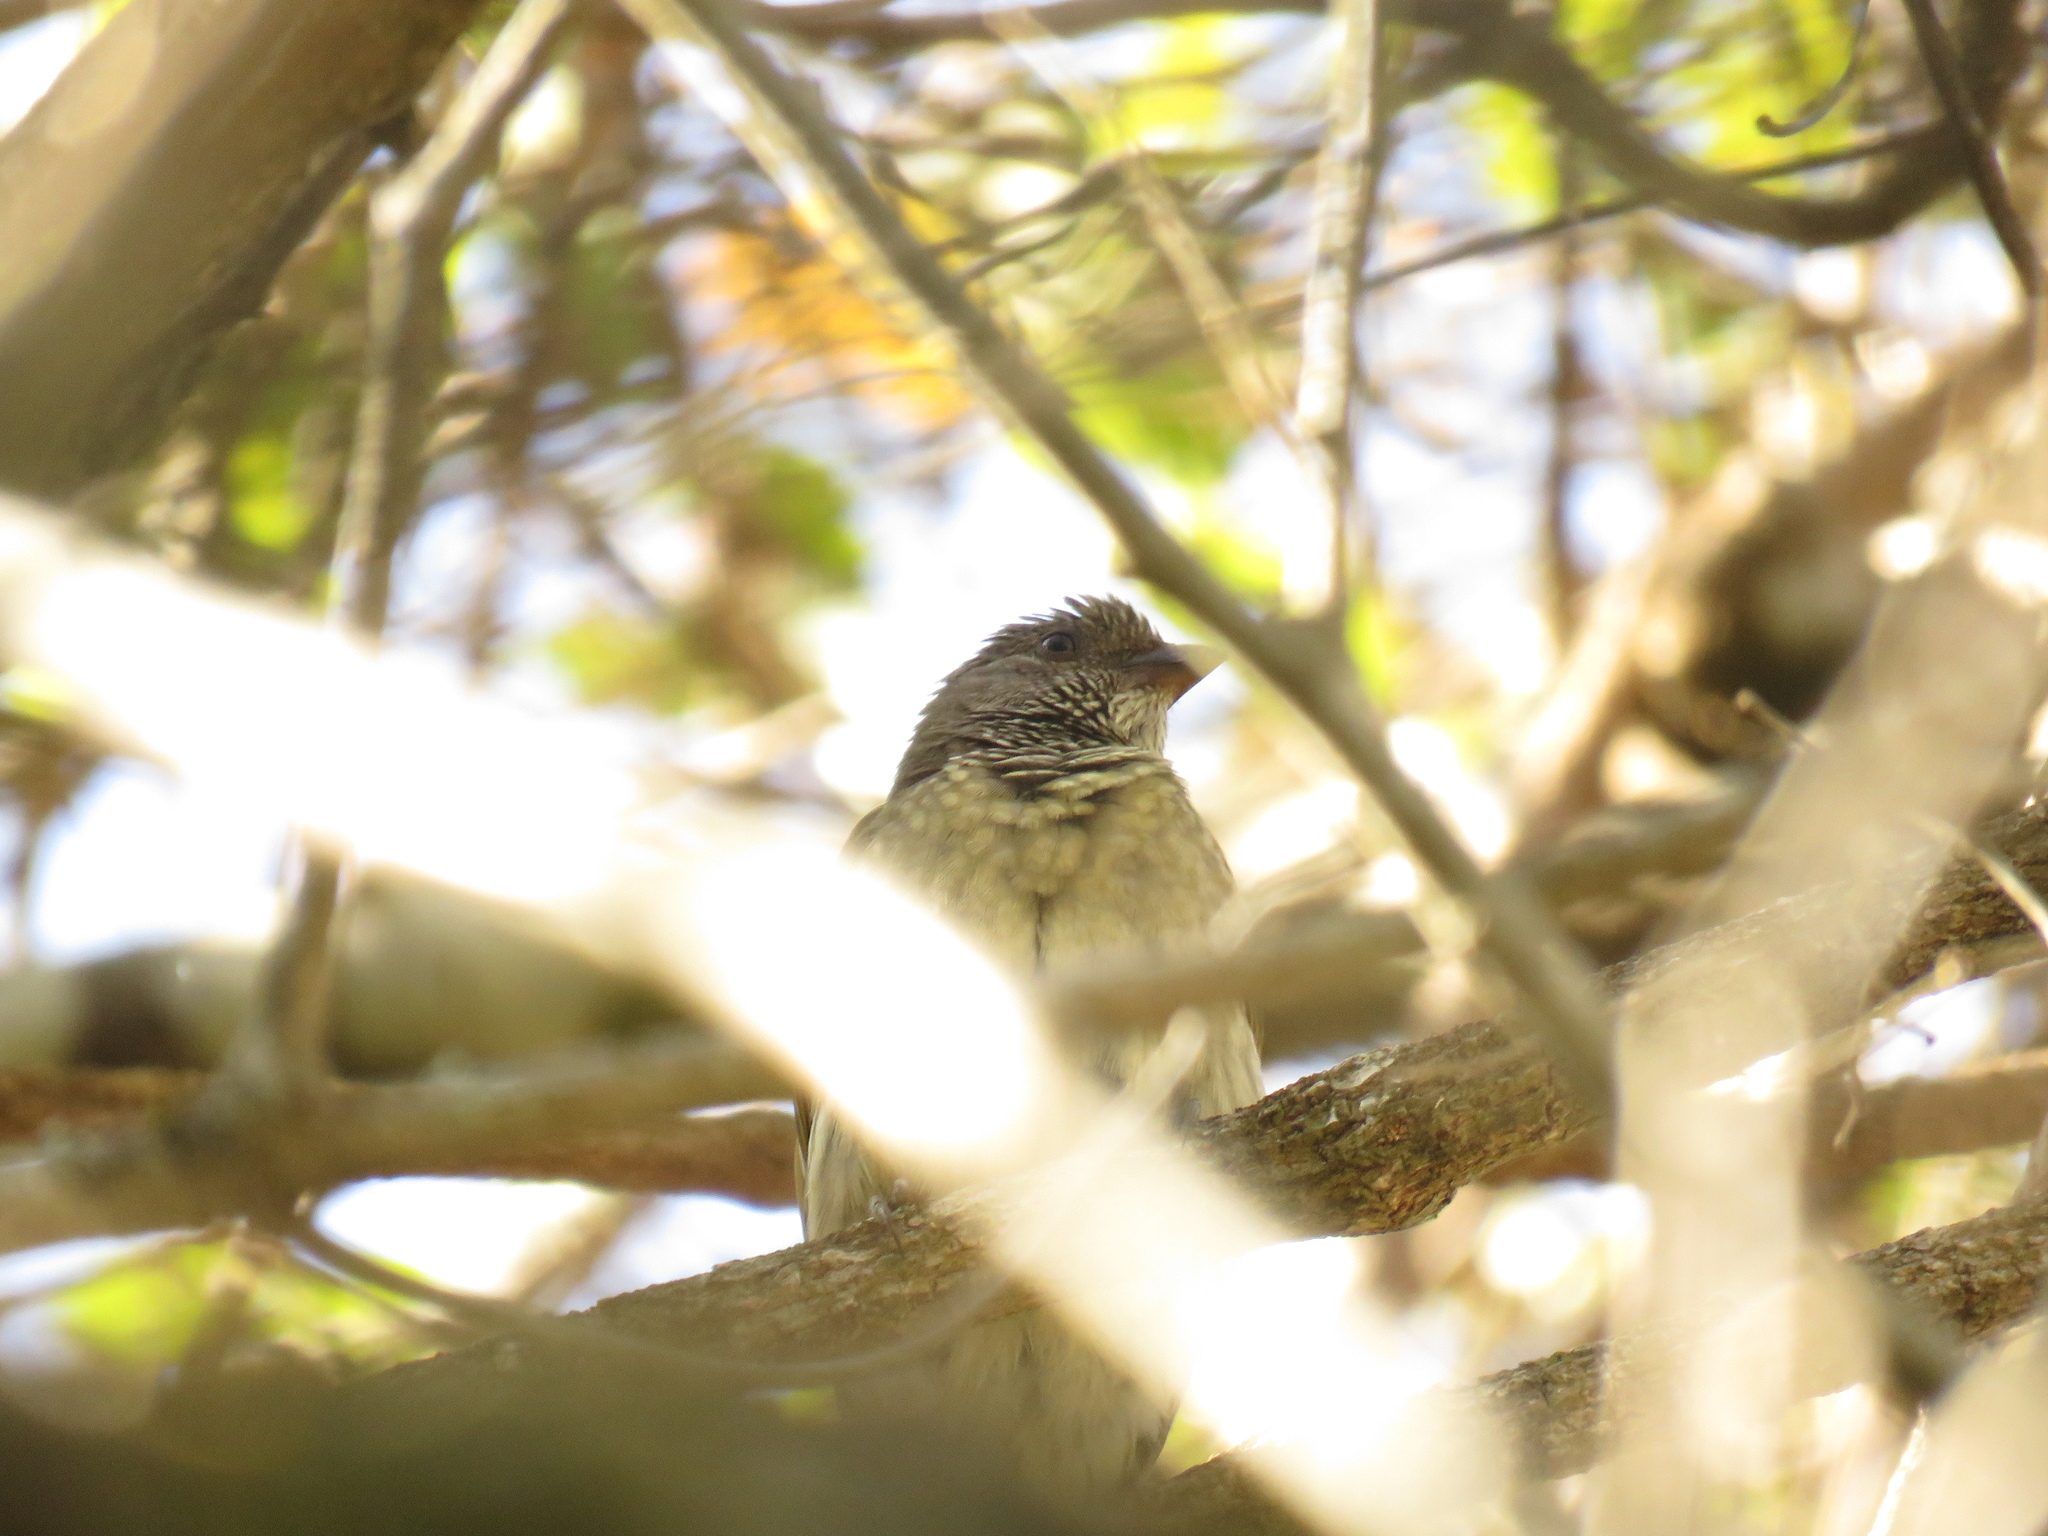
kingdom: Animalia
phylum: Chordata
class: Aves
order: Piciformes
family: Indicatoridae
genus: Indicator
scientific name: Indicator variegatus
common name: Scaly-throated honeyguide
